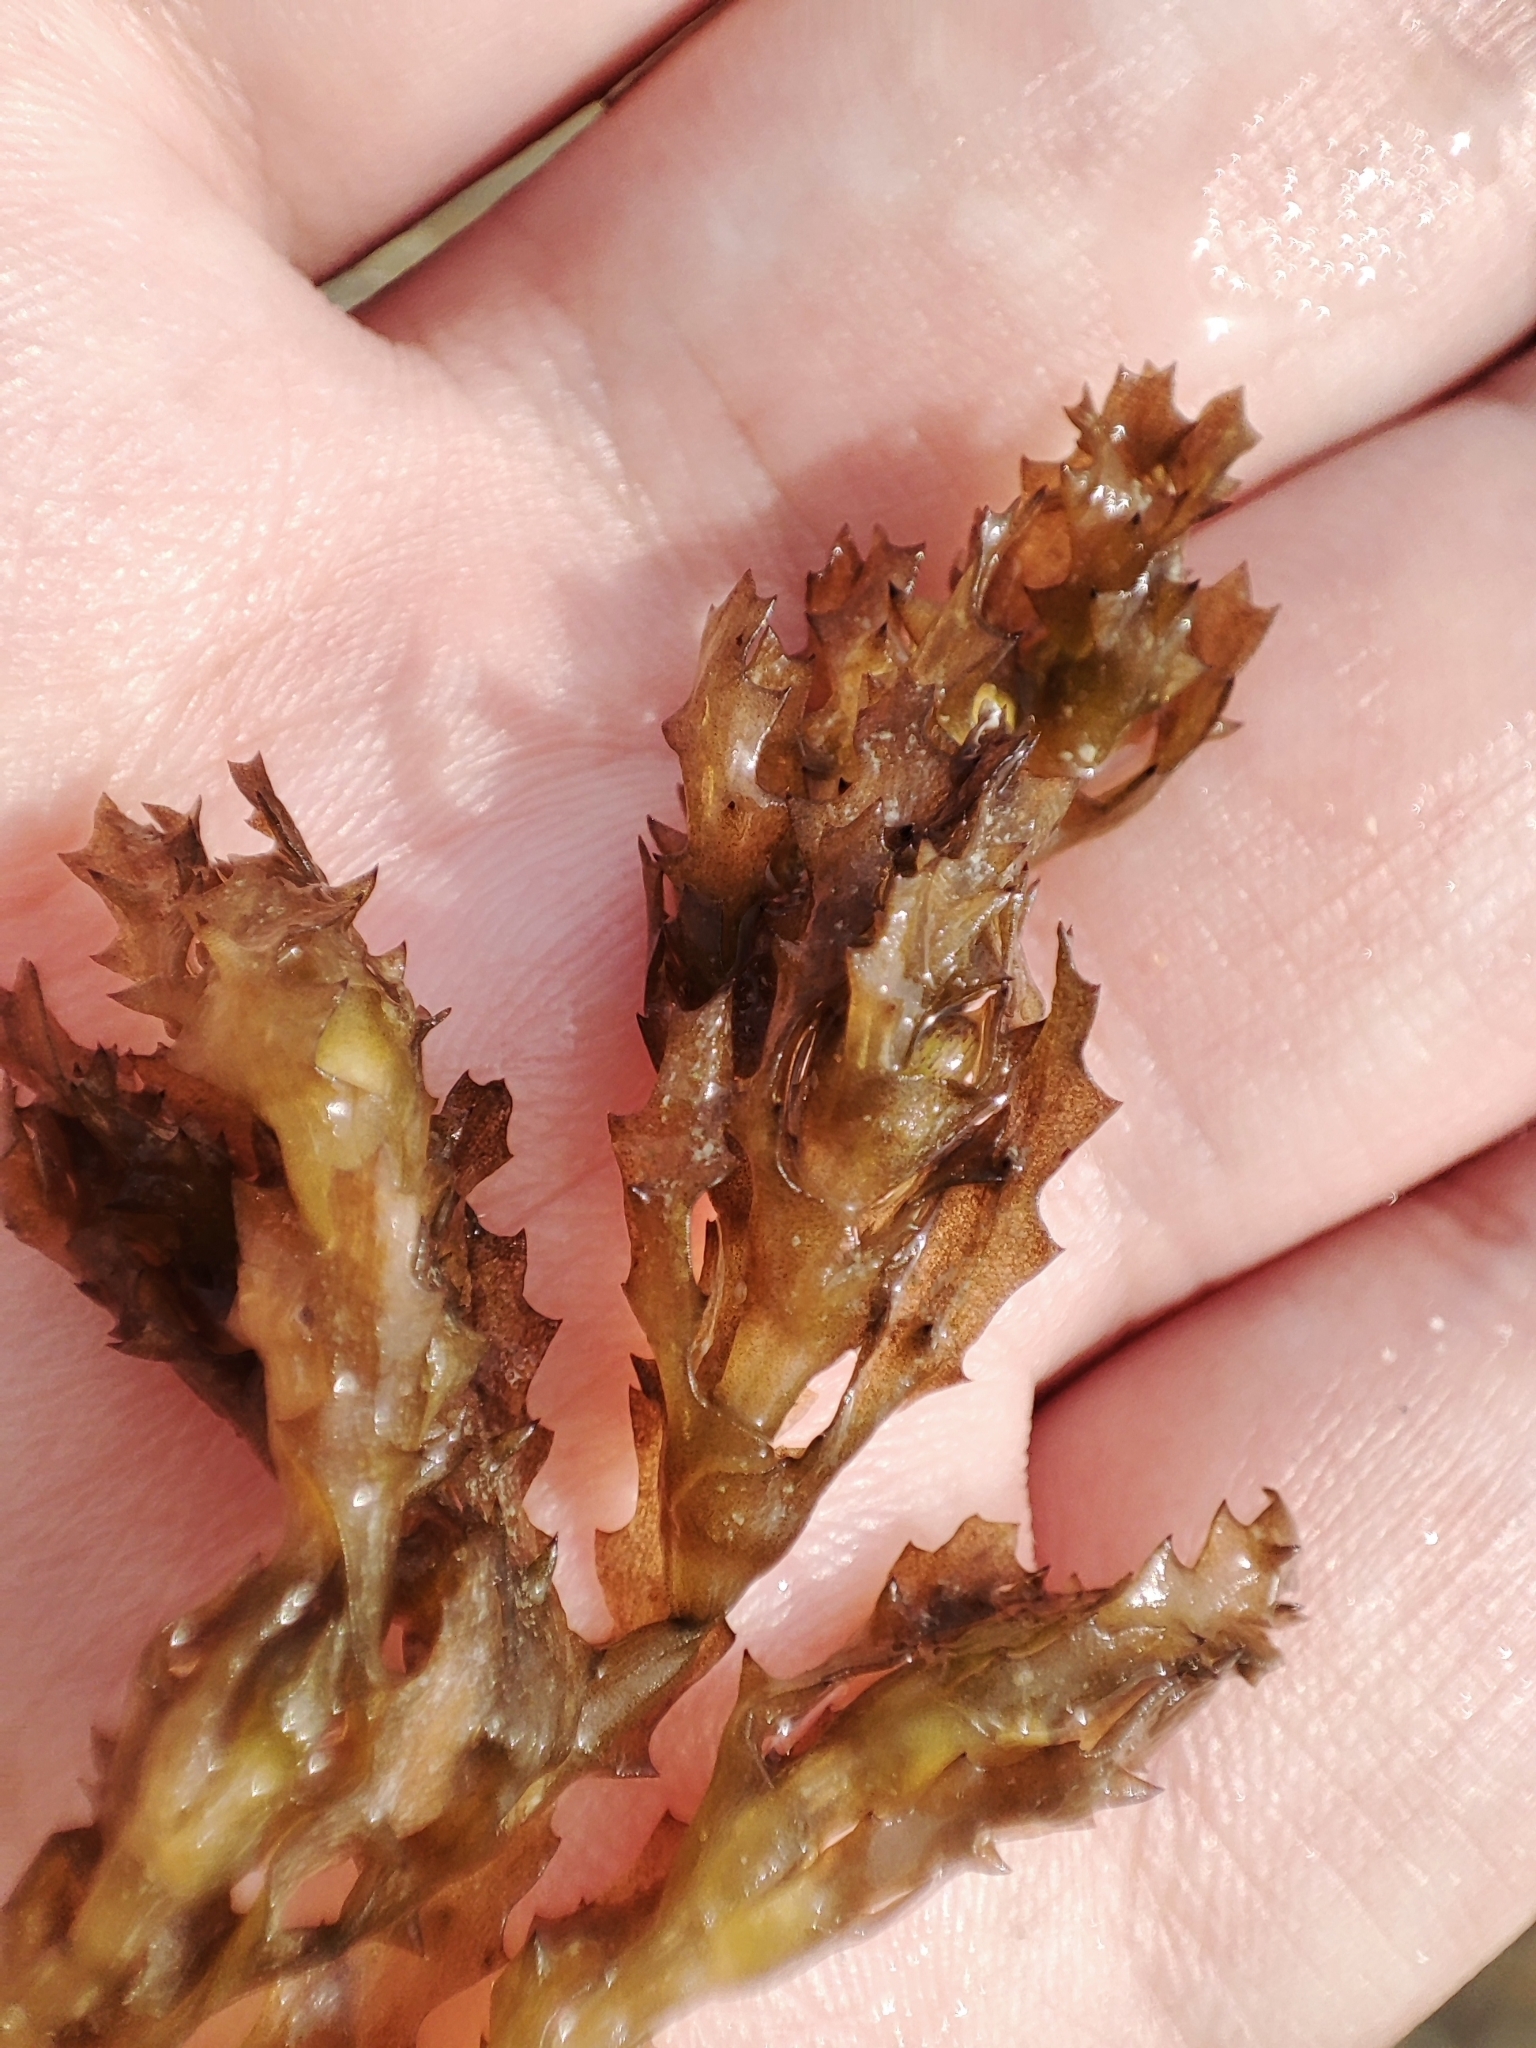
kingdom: Plantae
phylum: Tracheophyta
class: Liliopsida
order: Alismatales
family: Hydrocharitaceae
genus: Najas
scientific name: Najas marina
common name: Holly-leaved naiad
